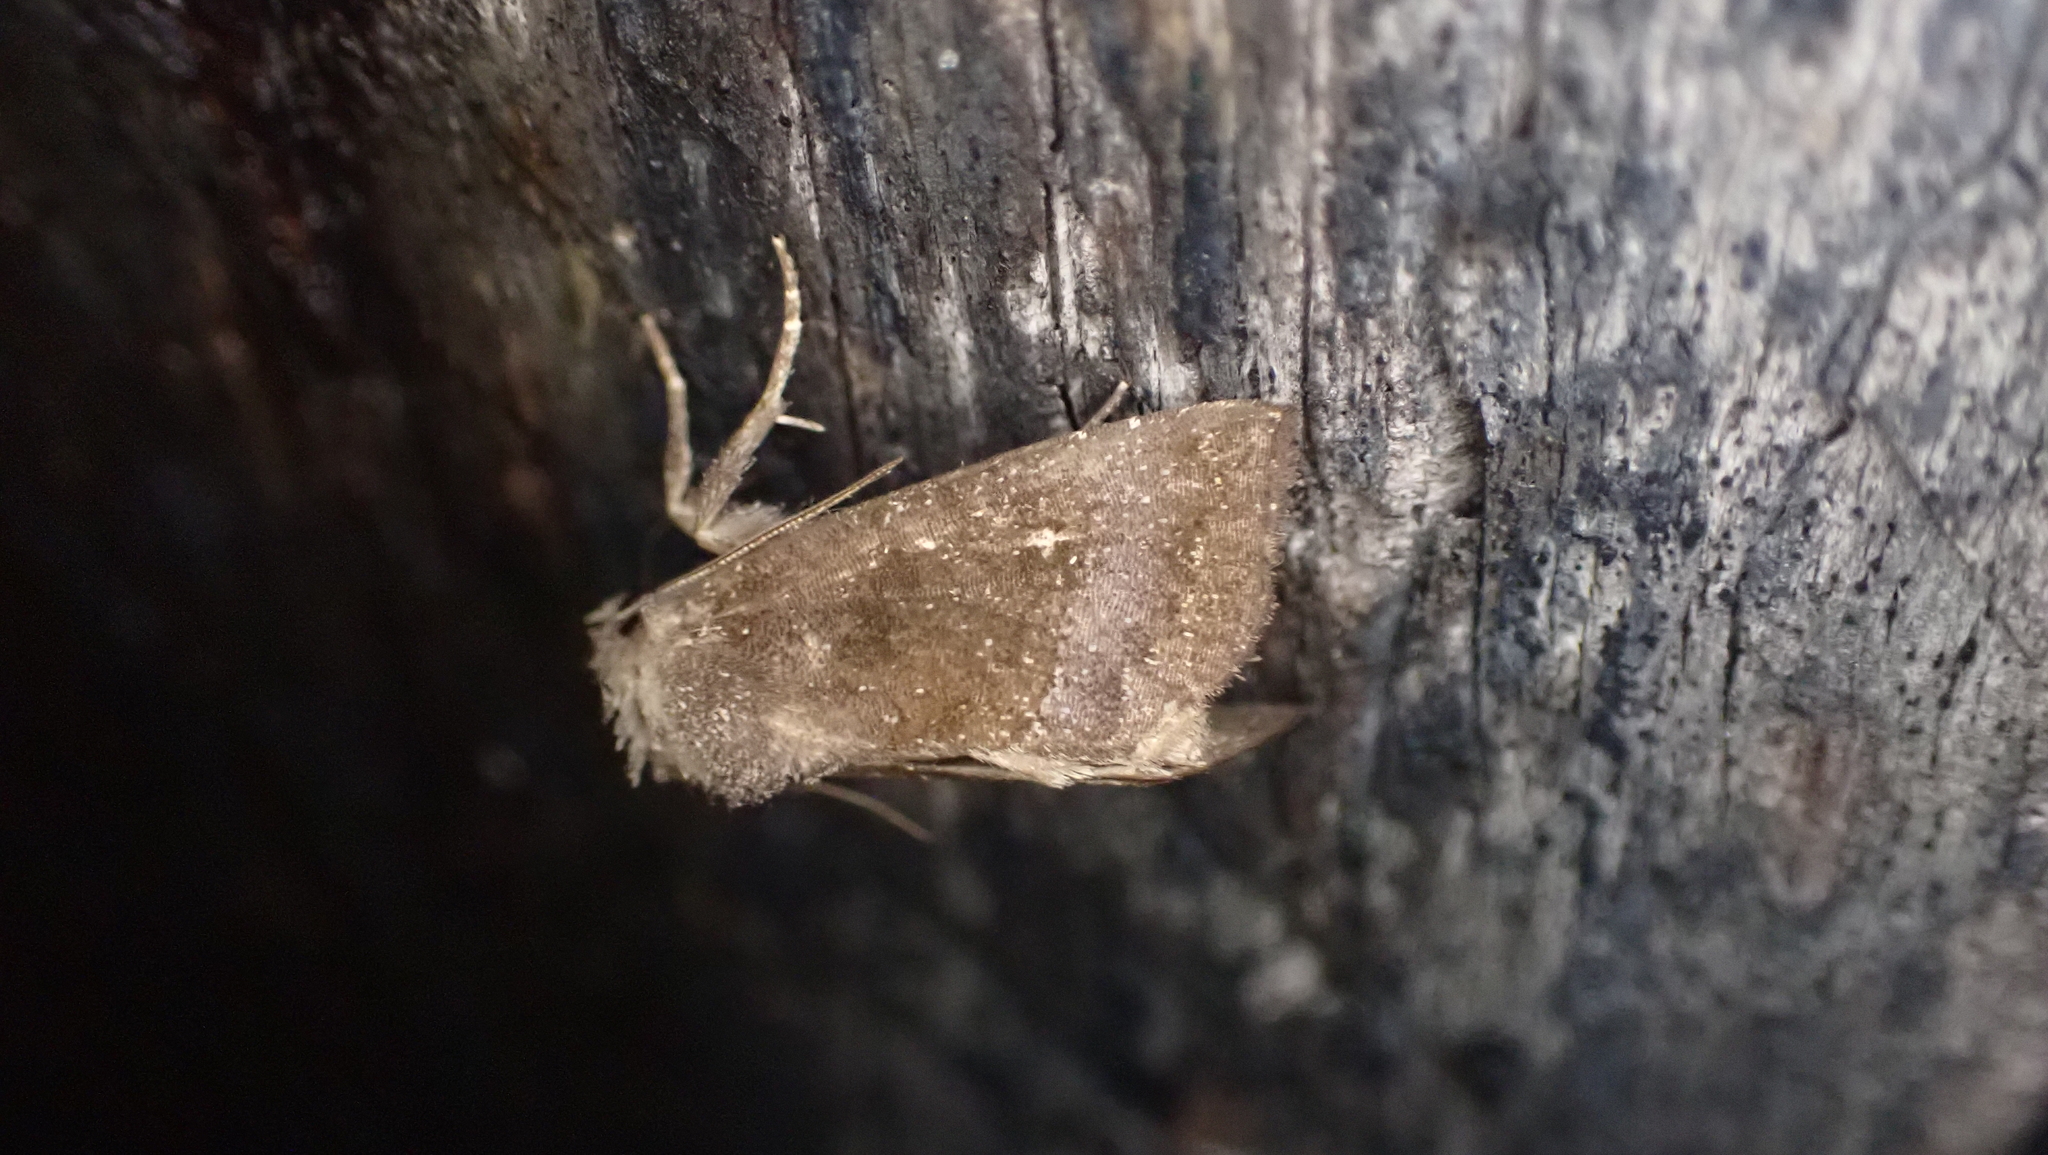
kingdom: Animalia
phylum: Arthropoda
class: Insecta
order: Lepidoptera
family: Noctuidae
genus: Ogdoconta
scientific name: Ogdoconta cinereola
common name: Common pinkband
